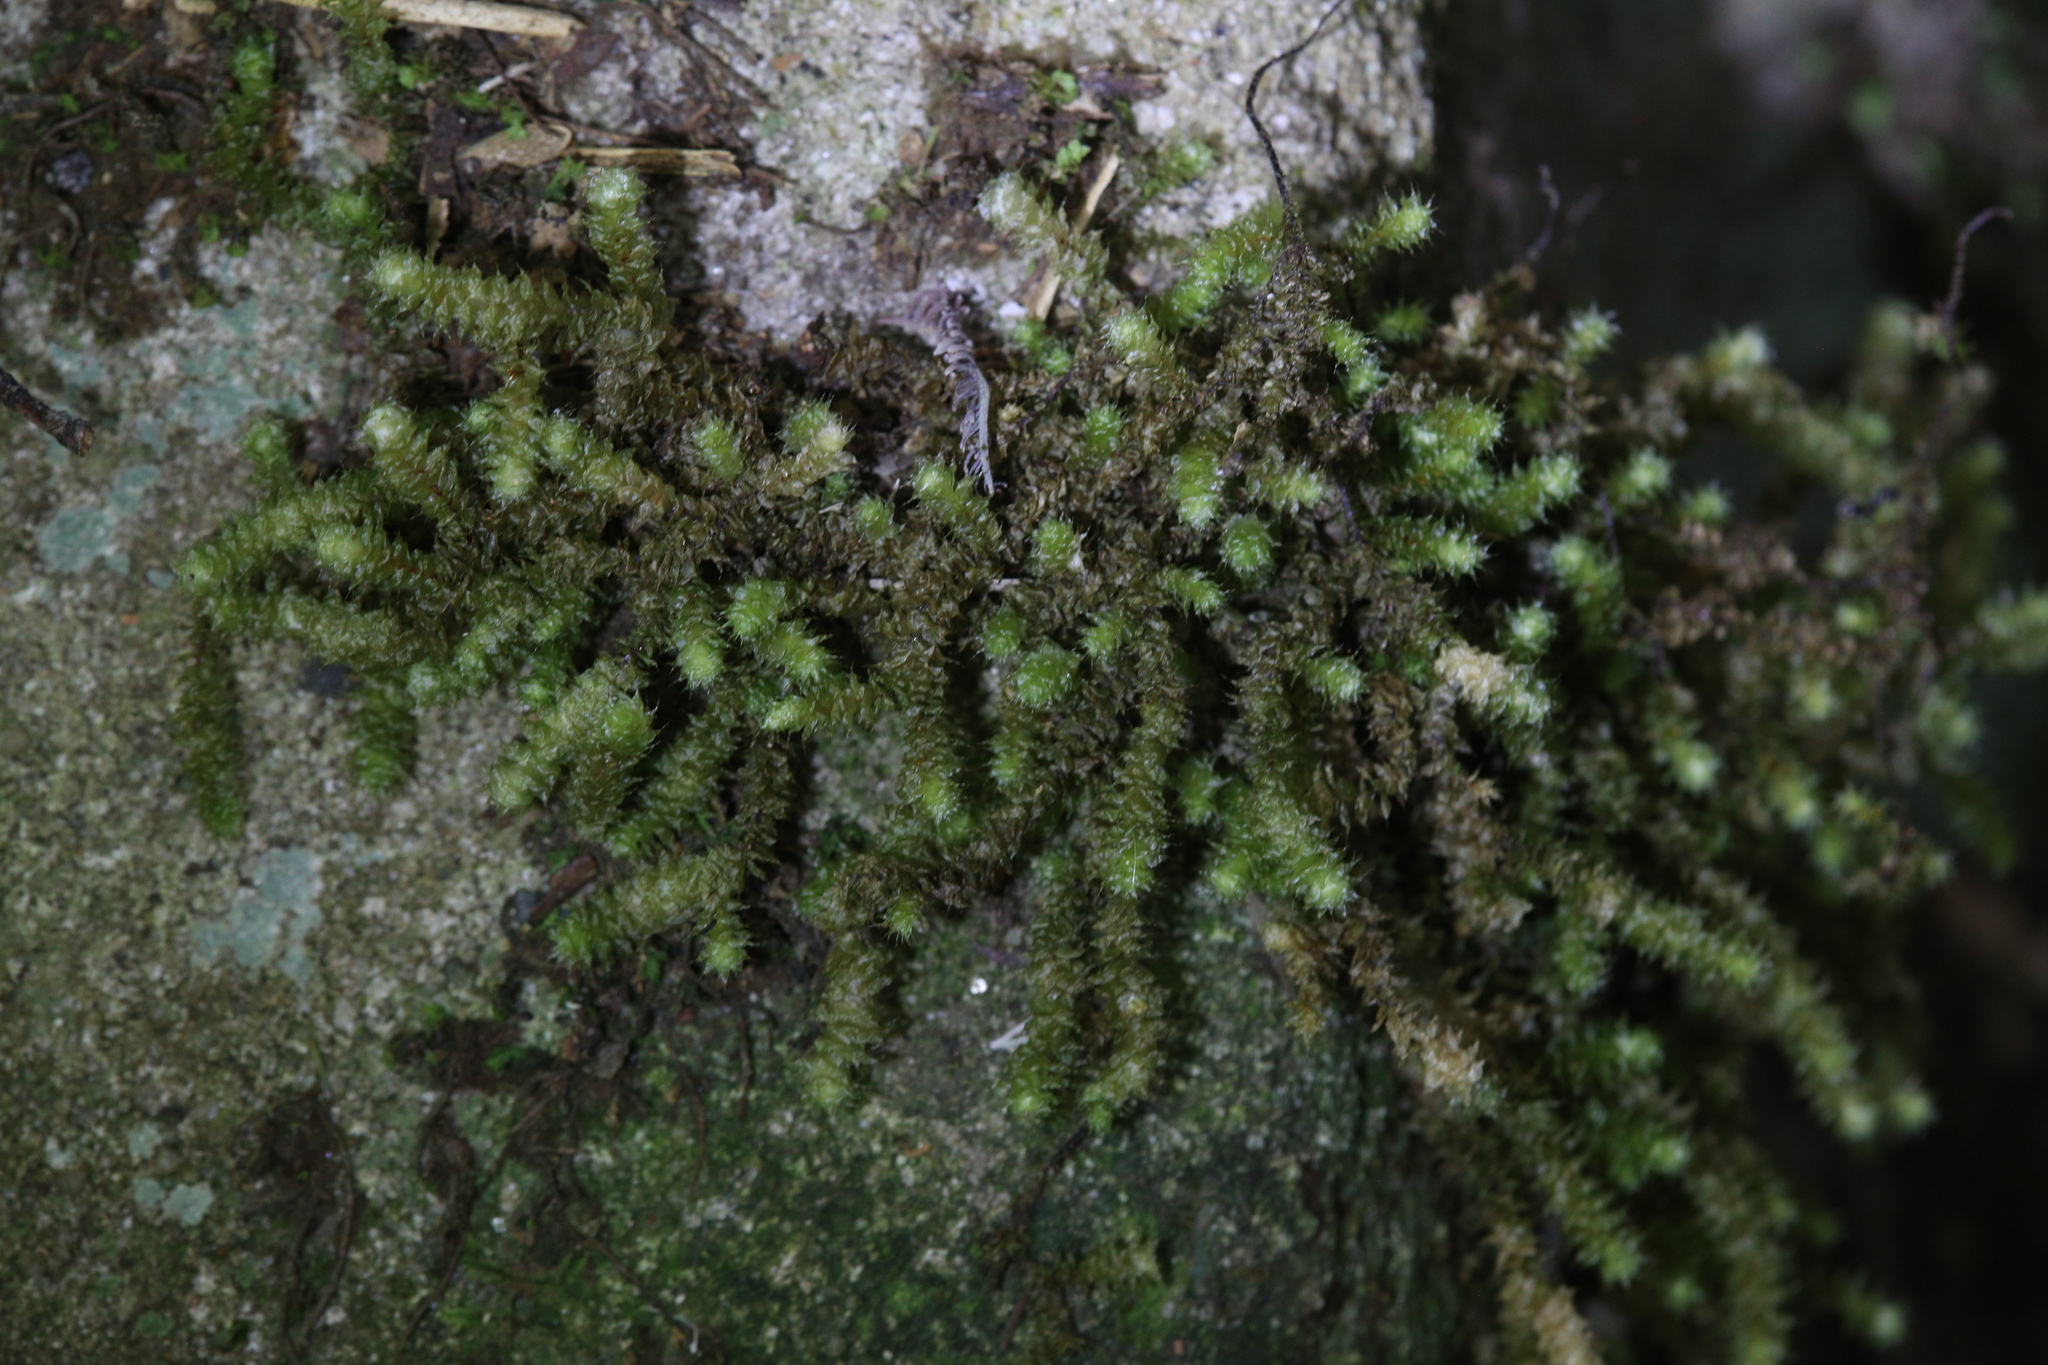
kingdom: Plantae
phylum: Bryophyta
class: Bryopsida
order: Ptychomniales
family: Ptychomniaceae
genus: Ptychomnion
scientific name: Ptychomnion aciculare
